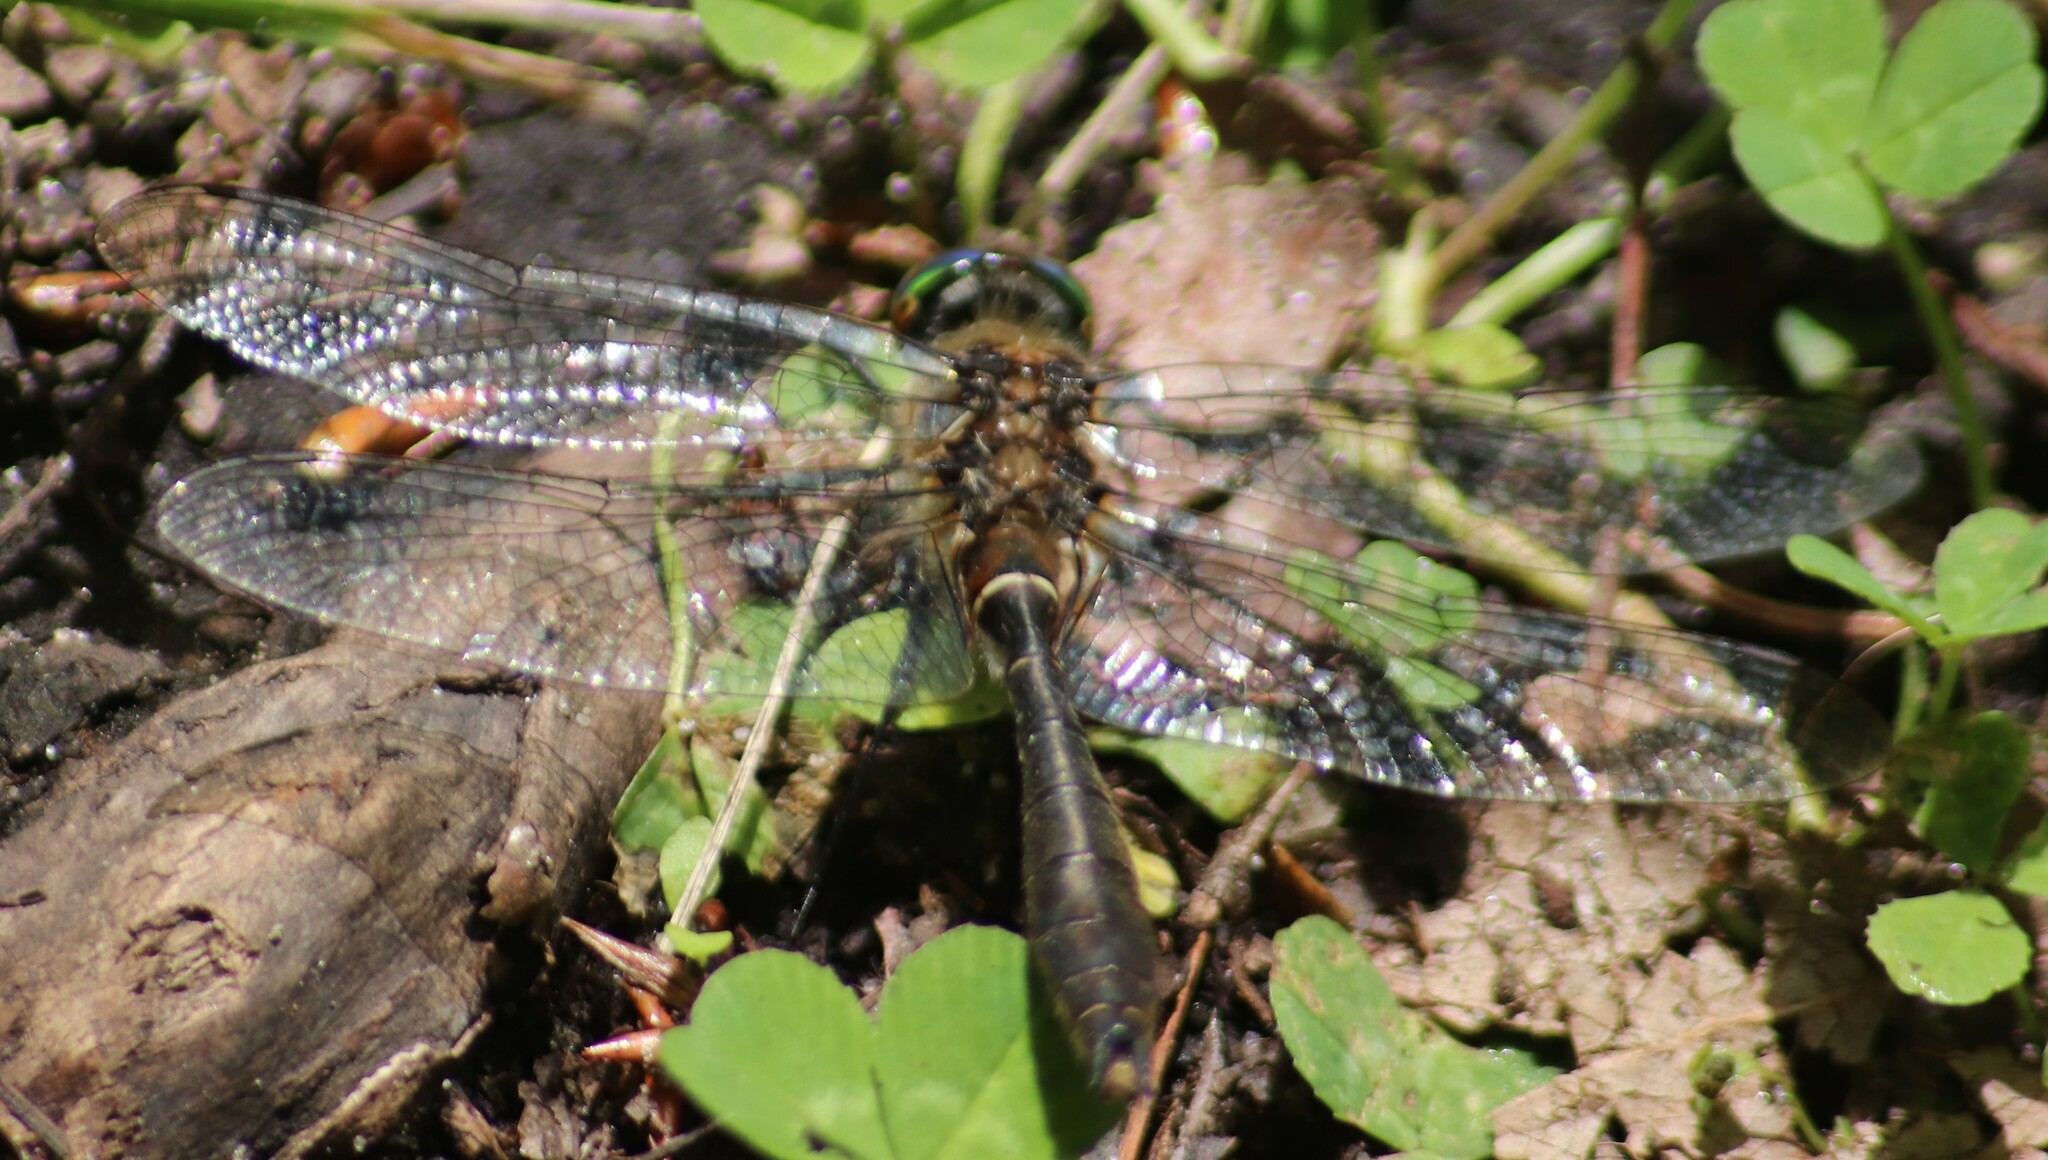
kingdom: Animalia
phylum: Arthropoda
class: Insecta
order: Odonata
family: Corduliidae
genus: Cordulia
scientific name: Cordulia shurtleffii
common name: American emerald
